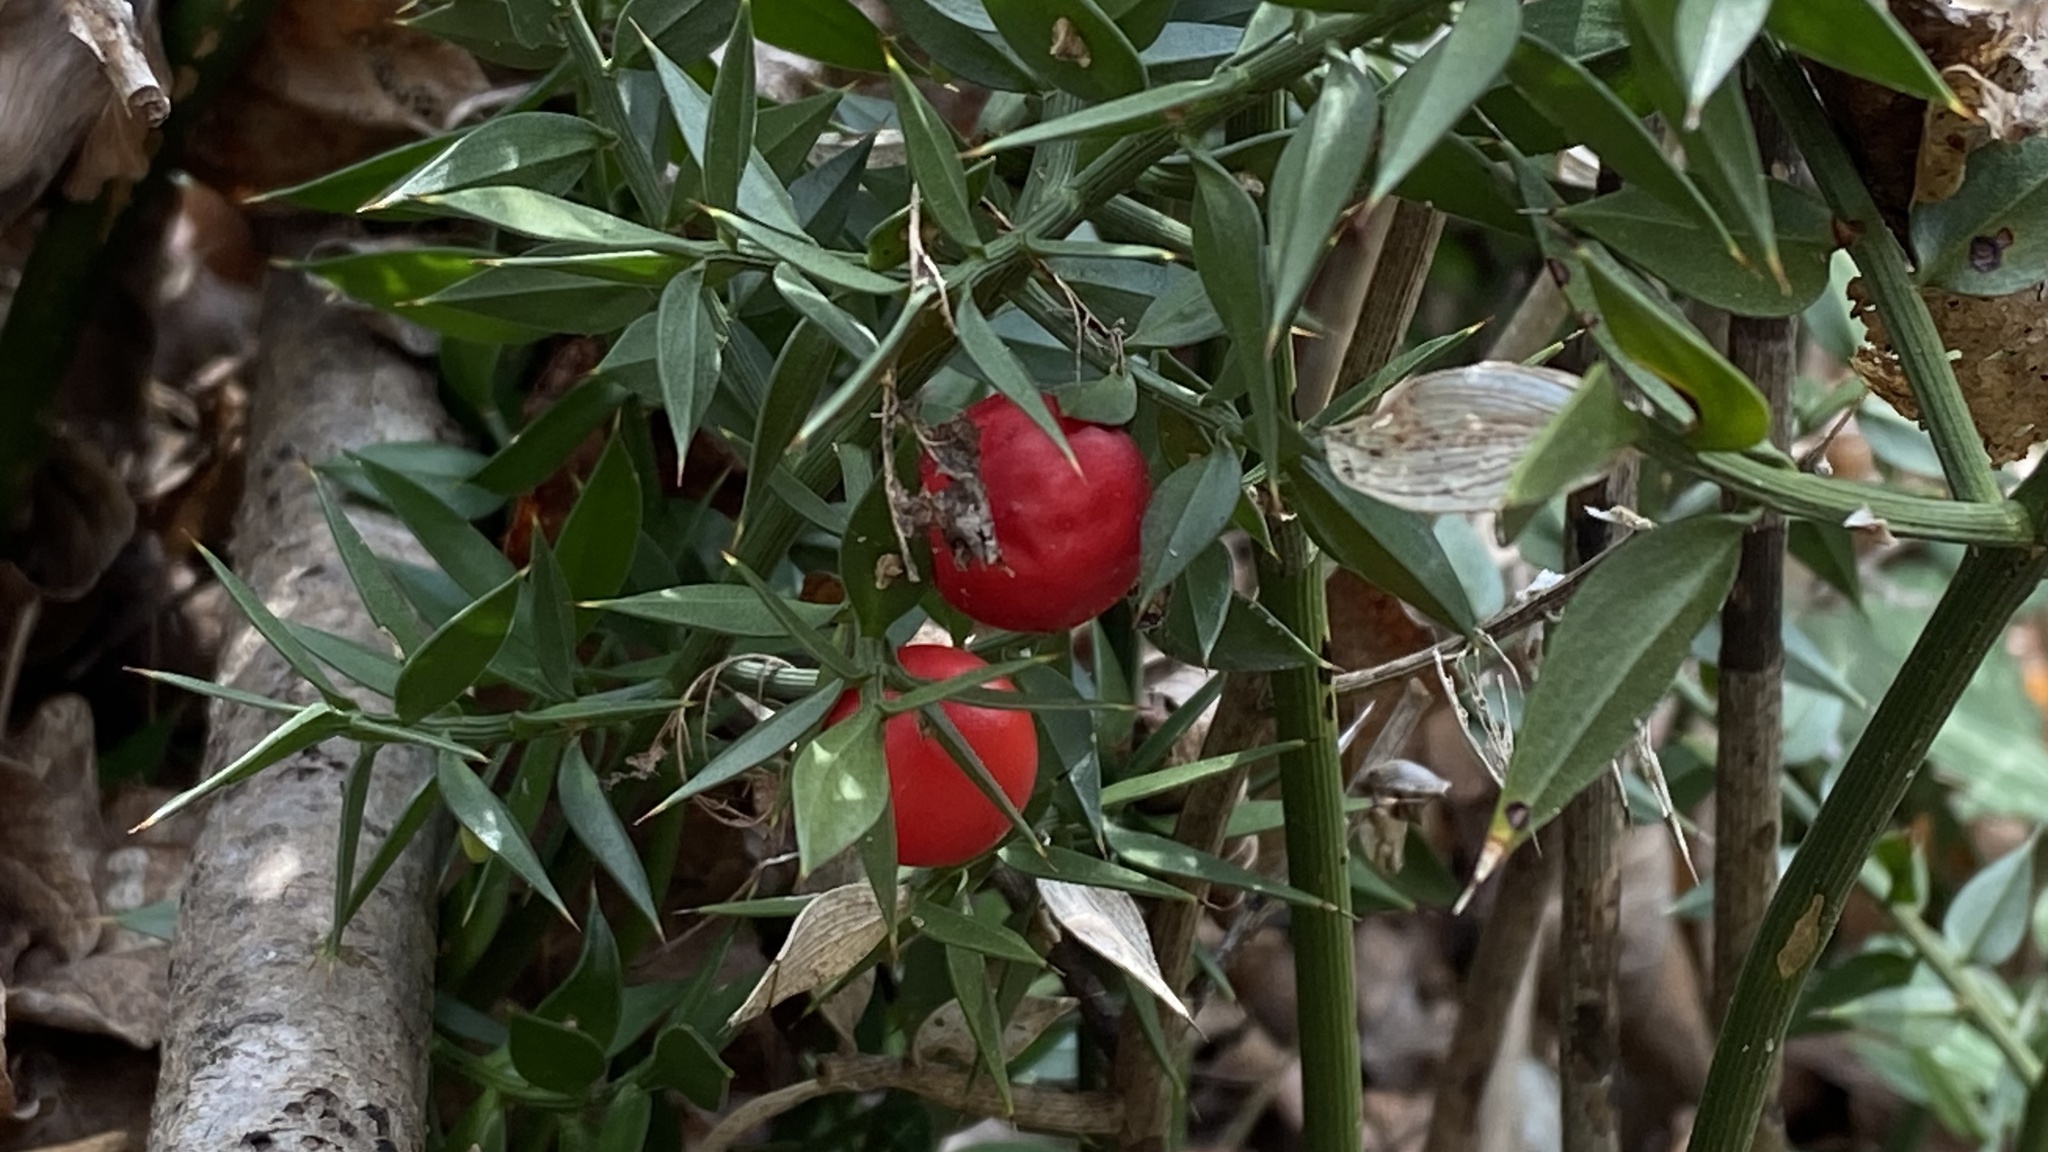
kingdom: Plantae
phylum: Tracheophyta
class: Liliopsida
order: Asparagales
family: Asparagaceae
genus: Ruscus
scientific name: Ruscus aculeatus
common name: Butcher's-broom
